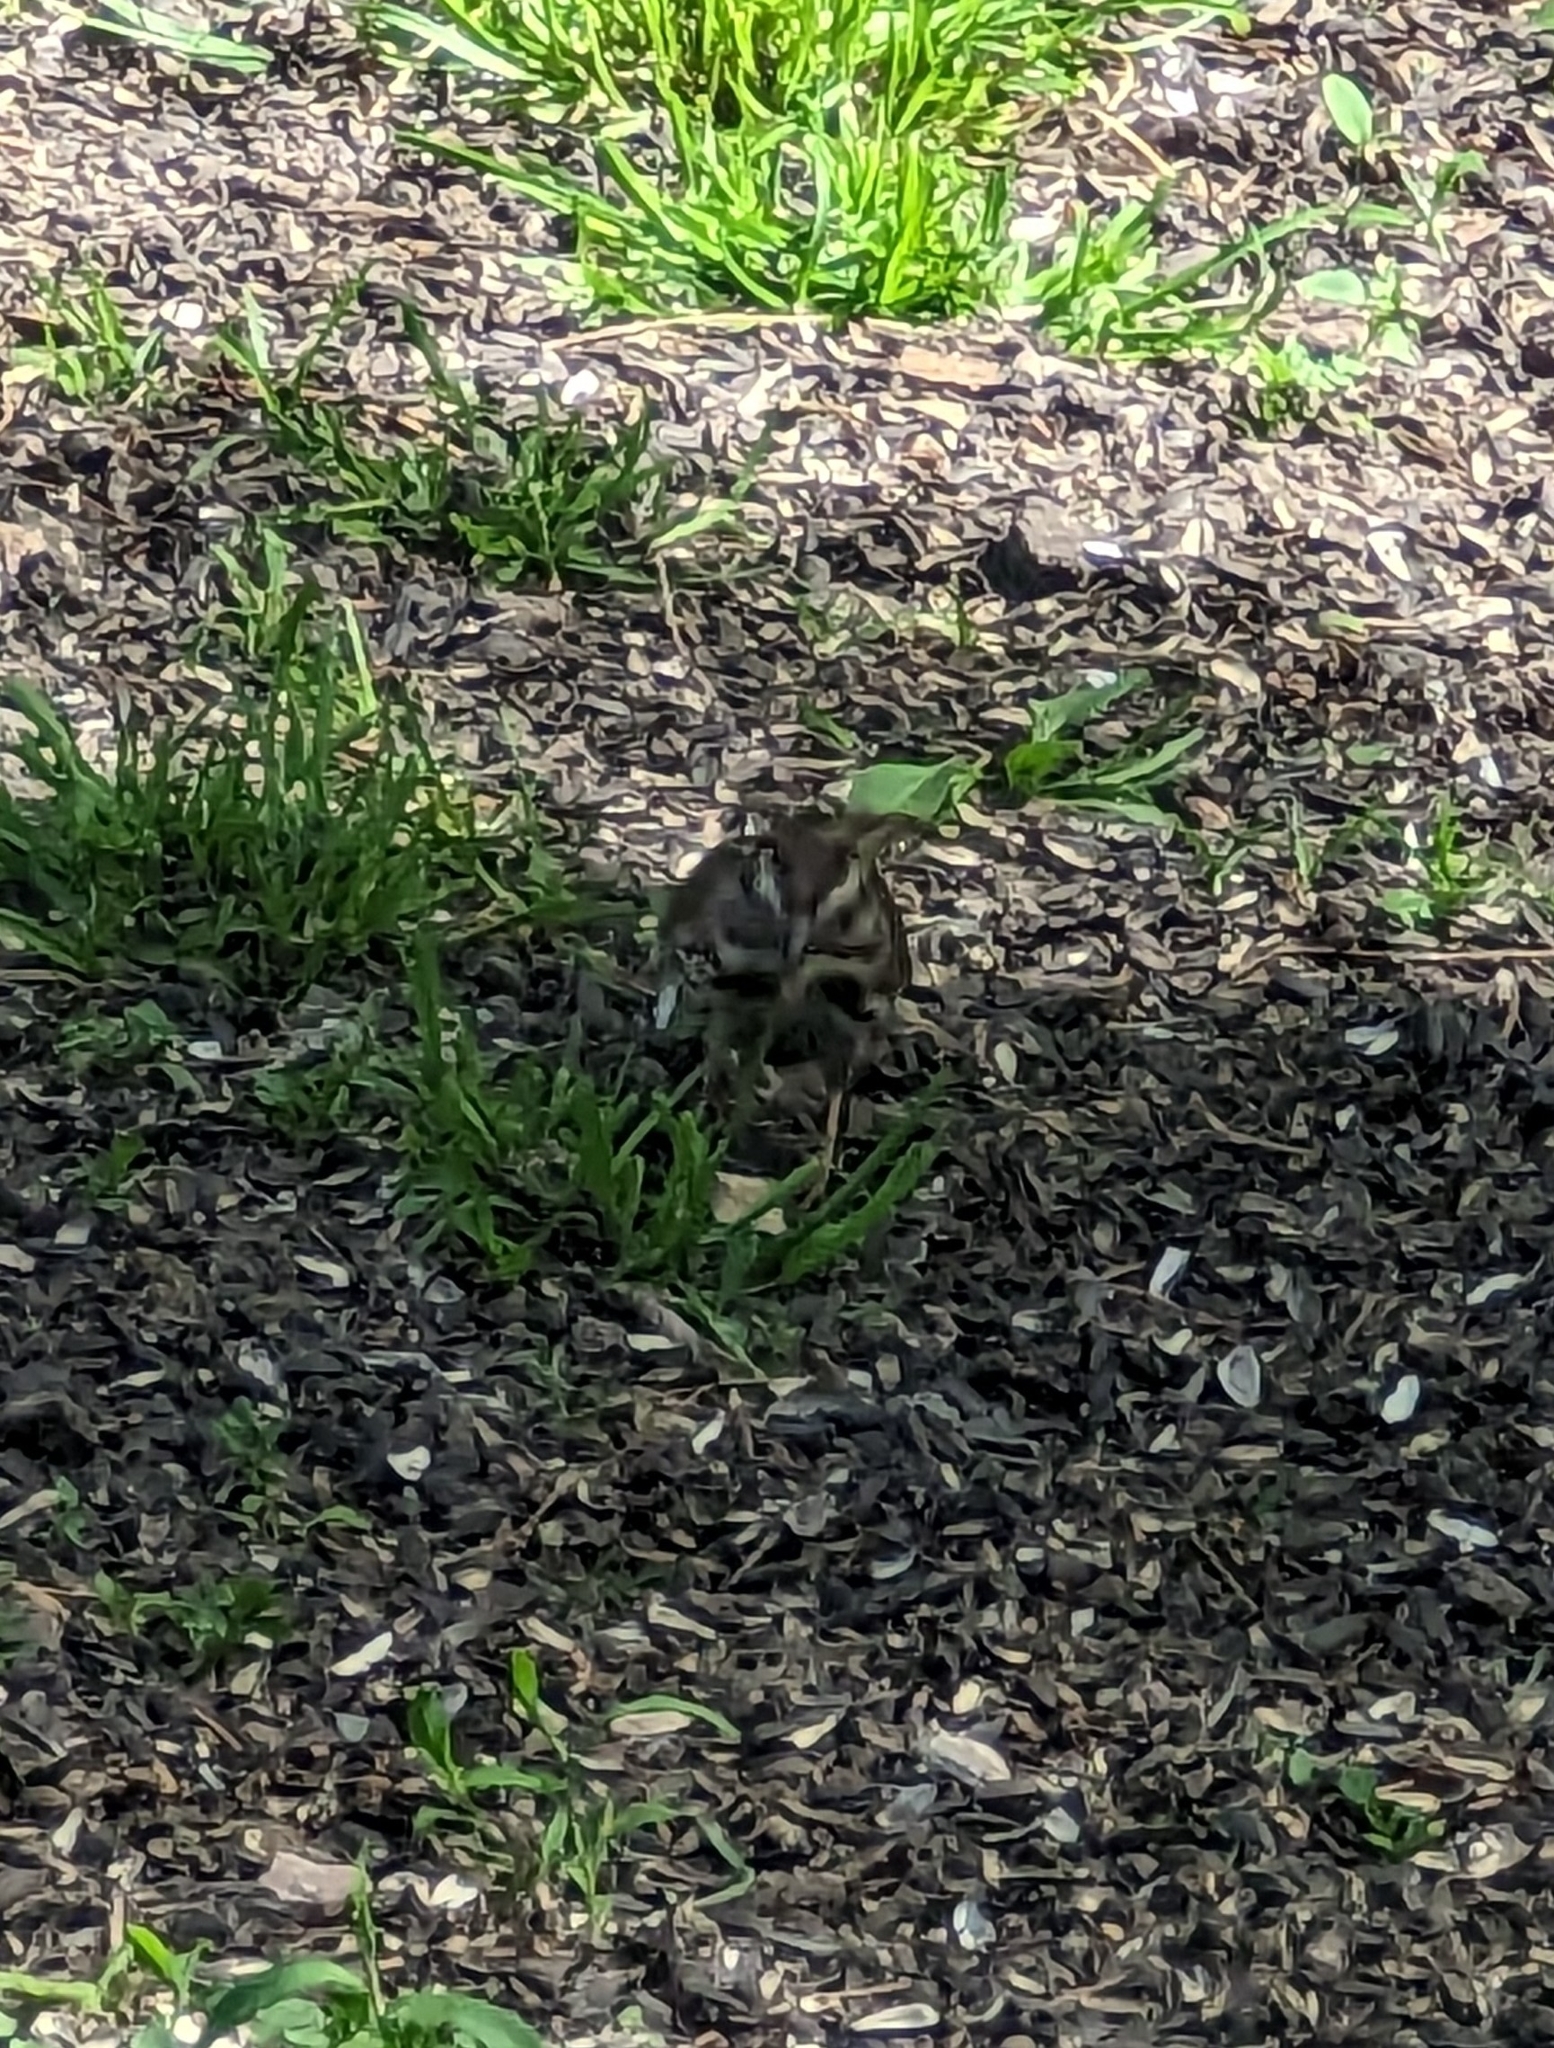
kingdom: Animalia
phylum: Chordata
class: Aves
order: Passeriformes
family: Passerellidae
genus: Melospiza
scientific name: Melospiza melodia
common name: Song sparrow
